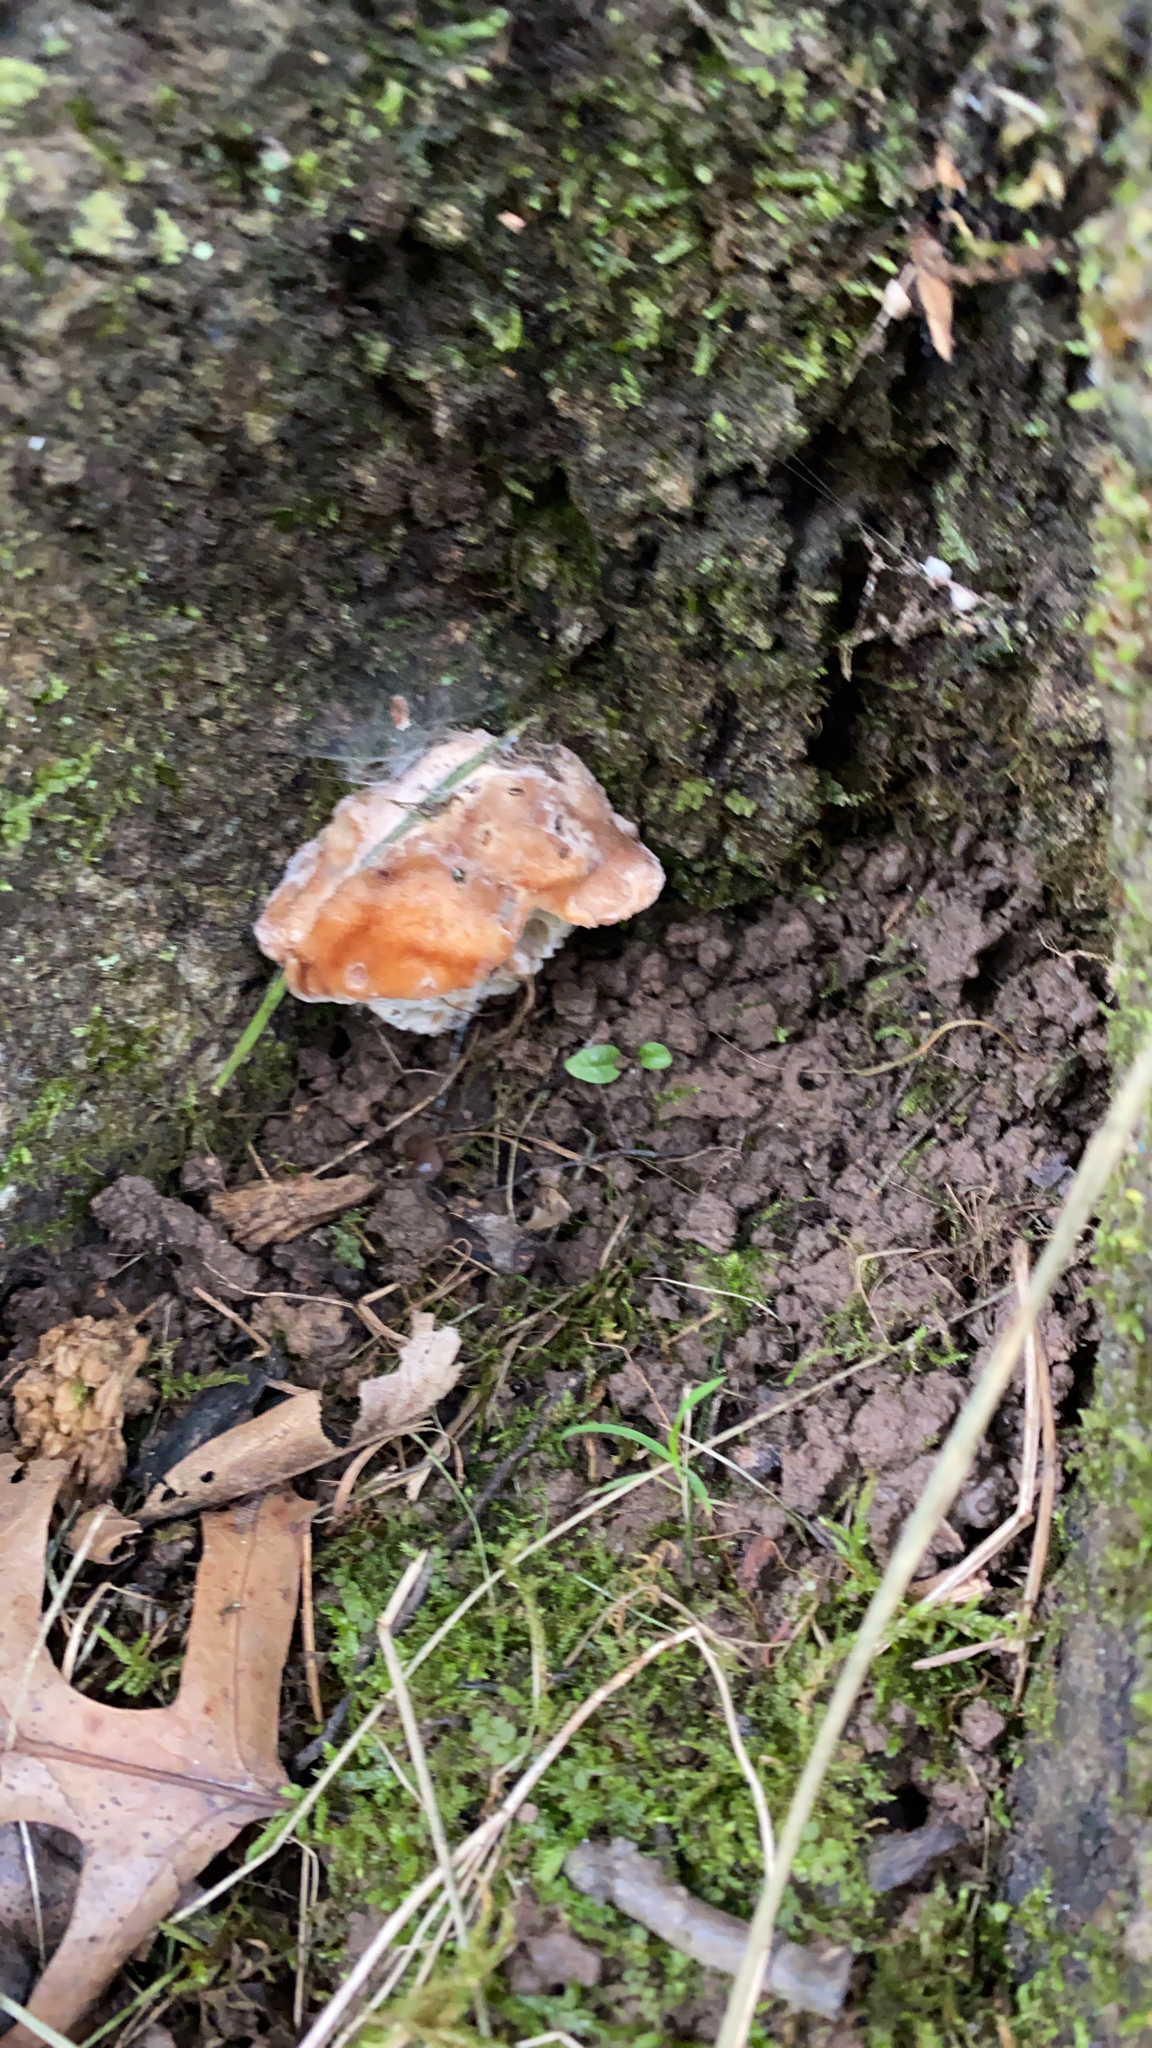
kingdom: Fungi
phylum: Basidiomycota
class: Agaricomycetes
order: Polyporales
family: Fomitopsidaceae
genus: Niveoporofomes
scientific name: Niveoporofomes spraguei
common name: Green cheese polypore
